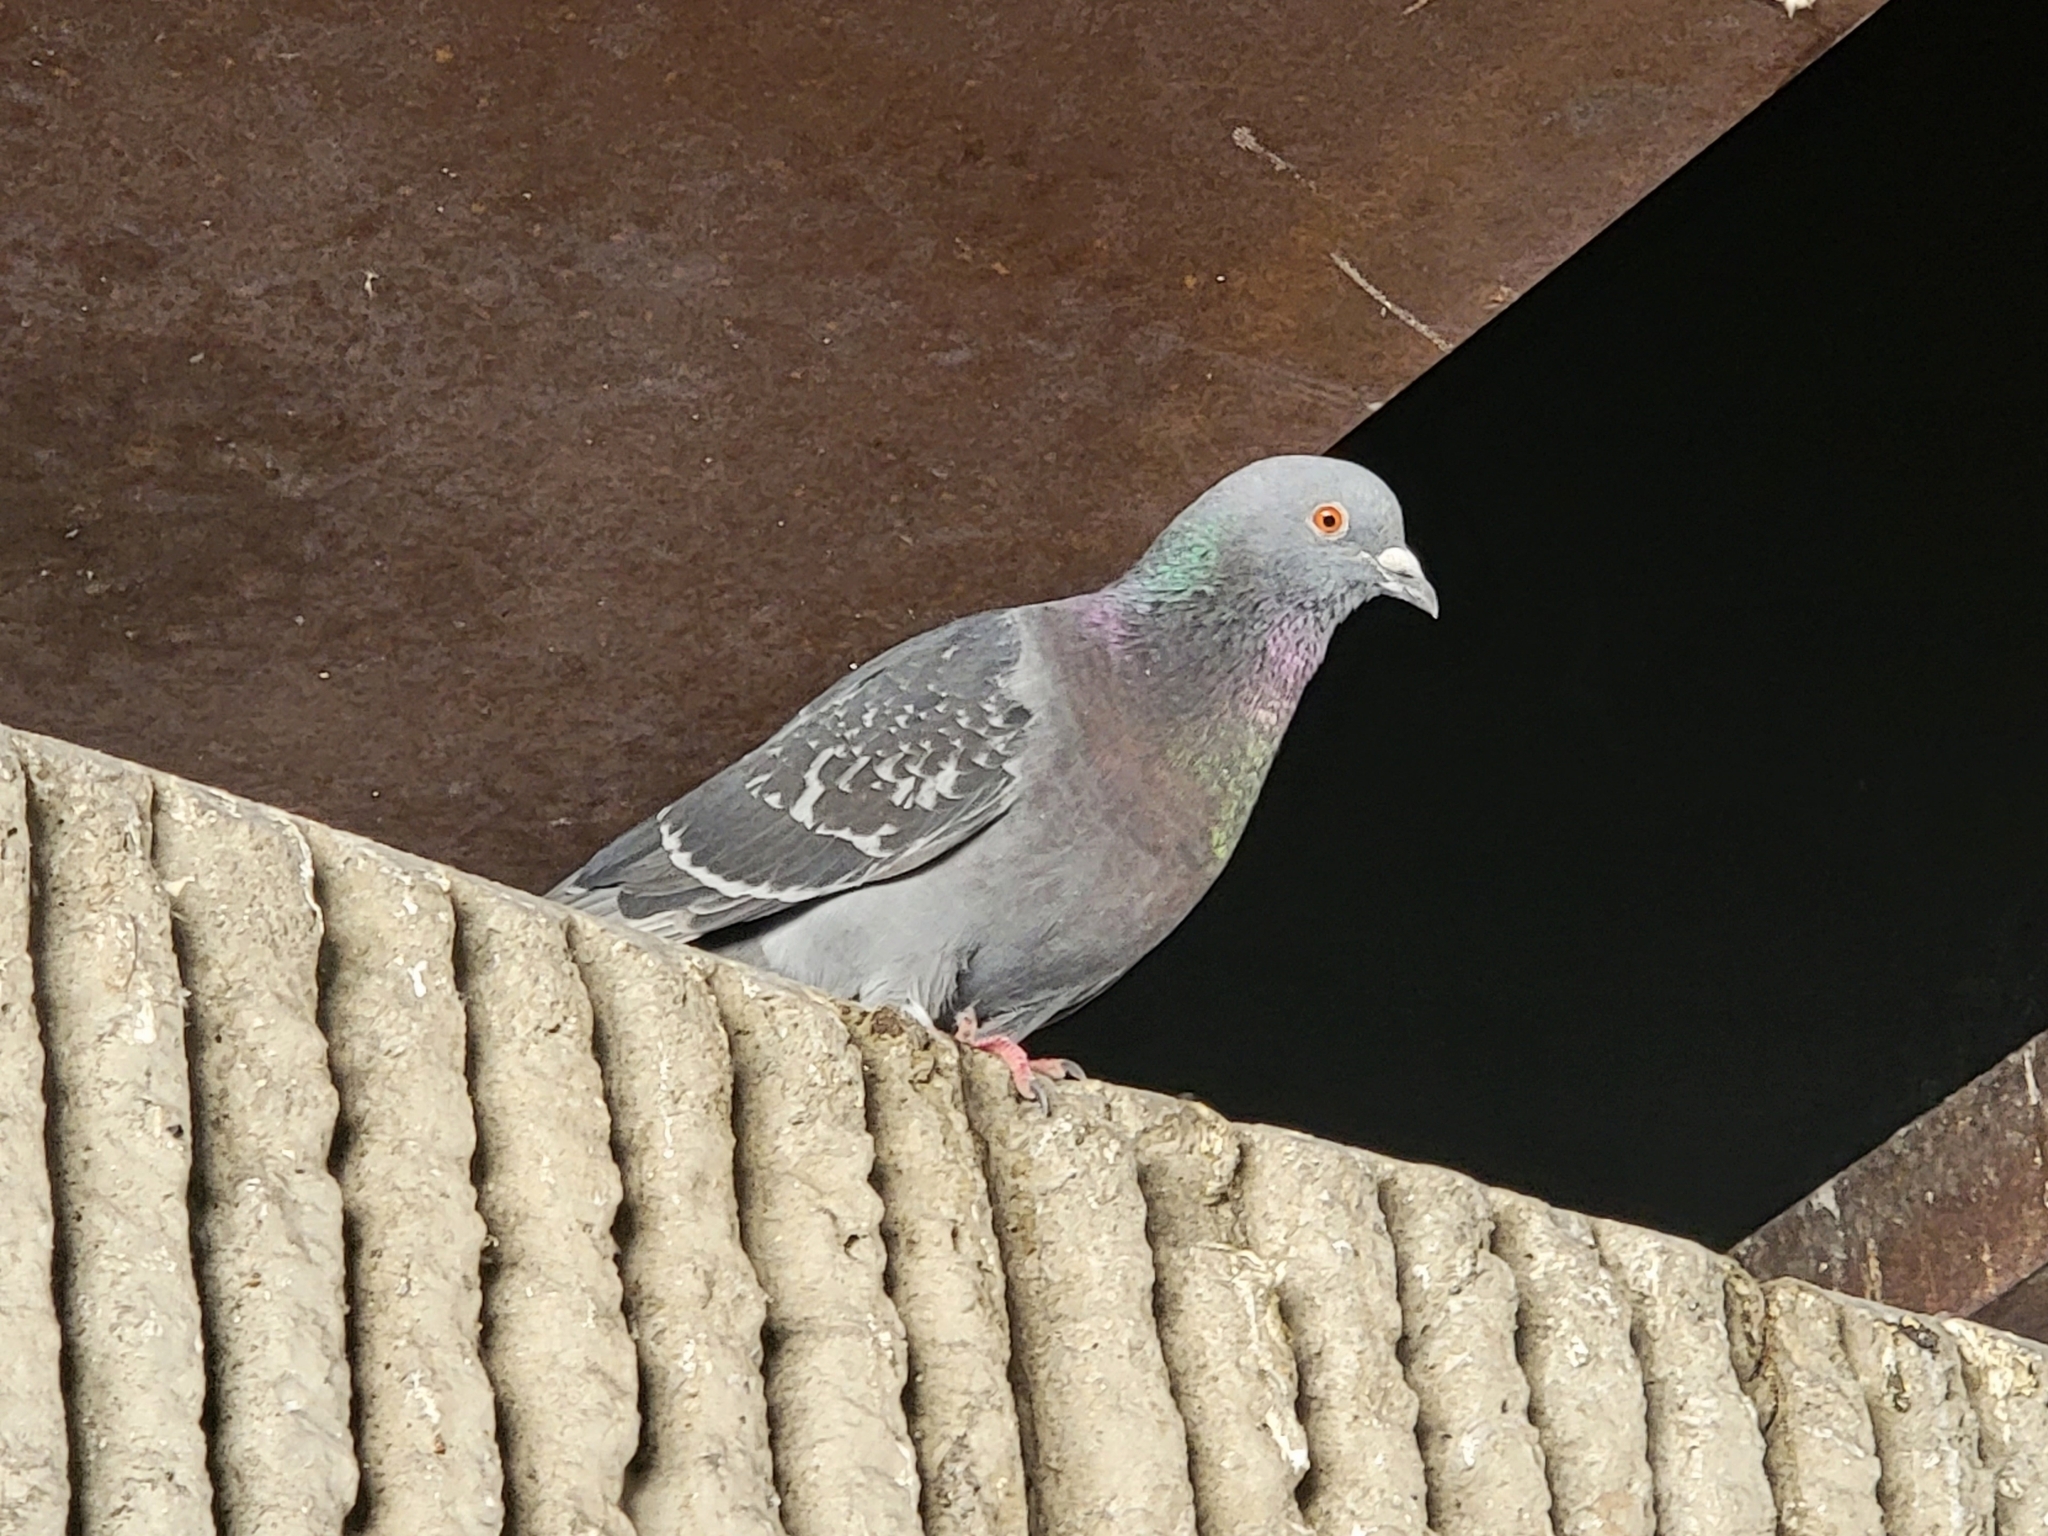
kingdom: Animalia
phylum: Chordata
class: Aves
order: Columbiformes
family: Columbidae
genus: Columba
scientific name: Columba livia
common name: Rock pigeon
